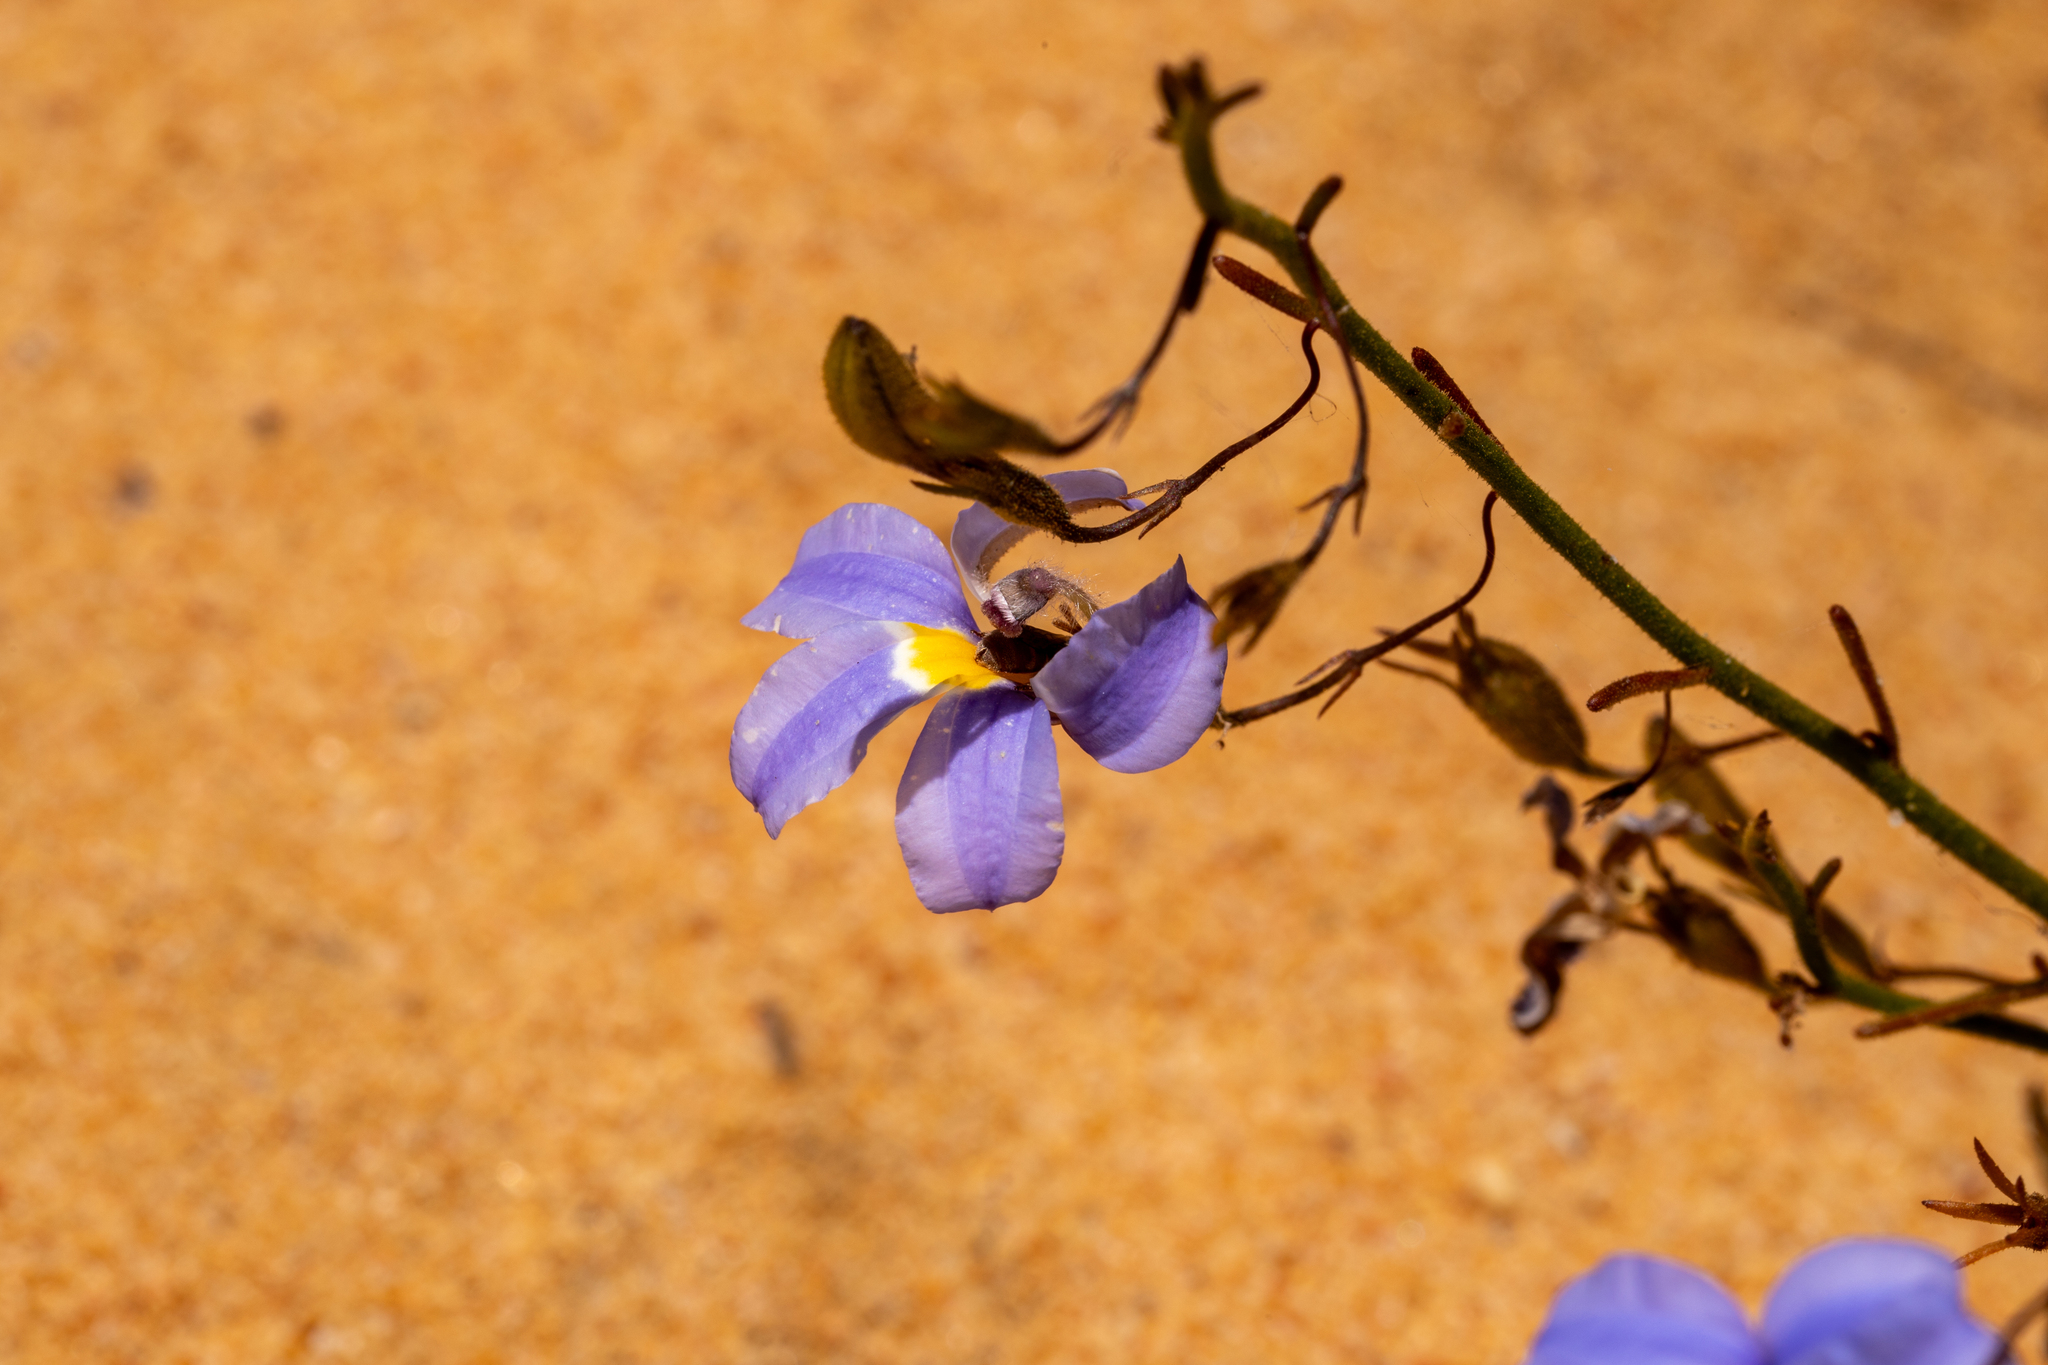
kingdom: Plantae
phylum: Tracheophyta
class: Magnoliopsida
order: Asterales
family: Goodeniaceae
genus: Goodenia
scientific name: Goodenia coerulea
